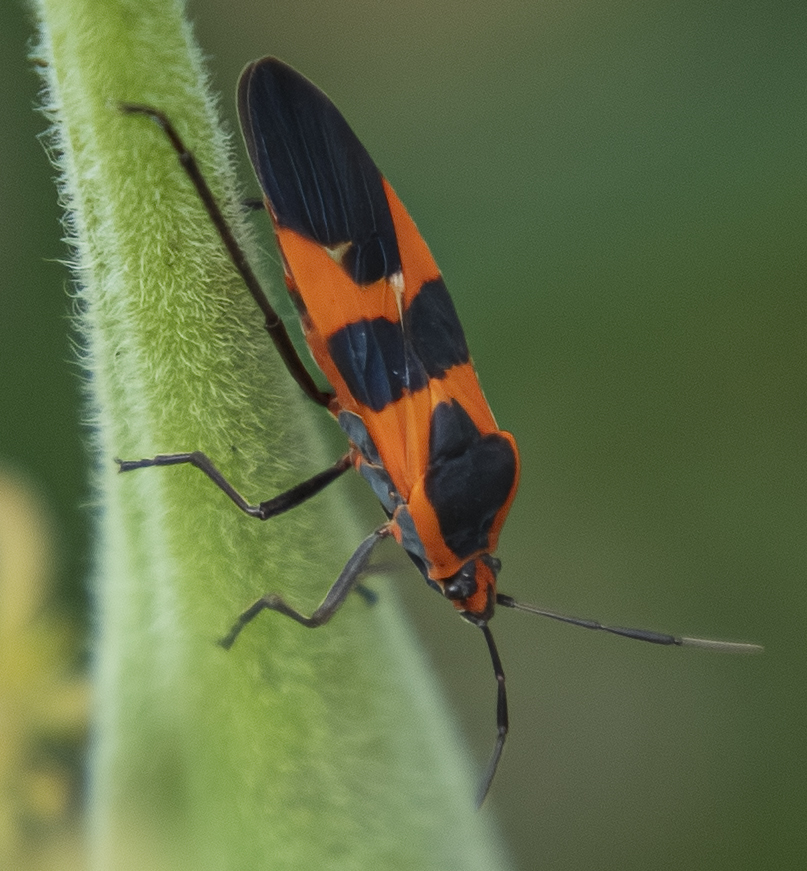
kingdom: Animalia
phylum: Arthropoda
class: Insecta
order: Hemiptera
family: Lygaeidae
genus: Oncopeltus
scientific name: Oncopeltus fasciatus
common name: Large milkweed bug
